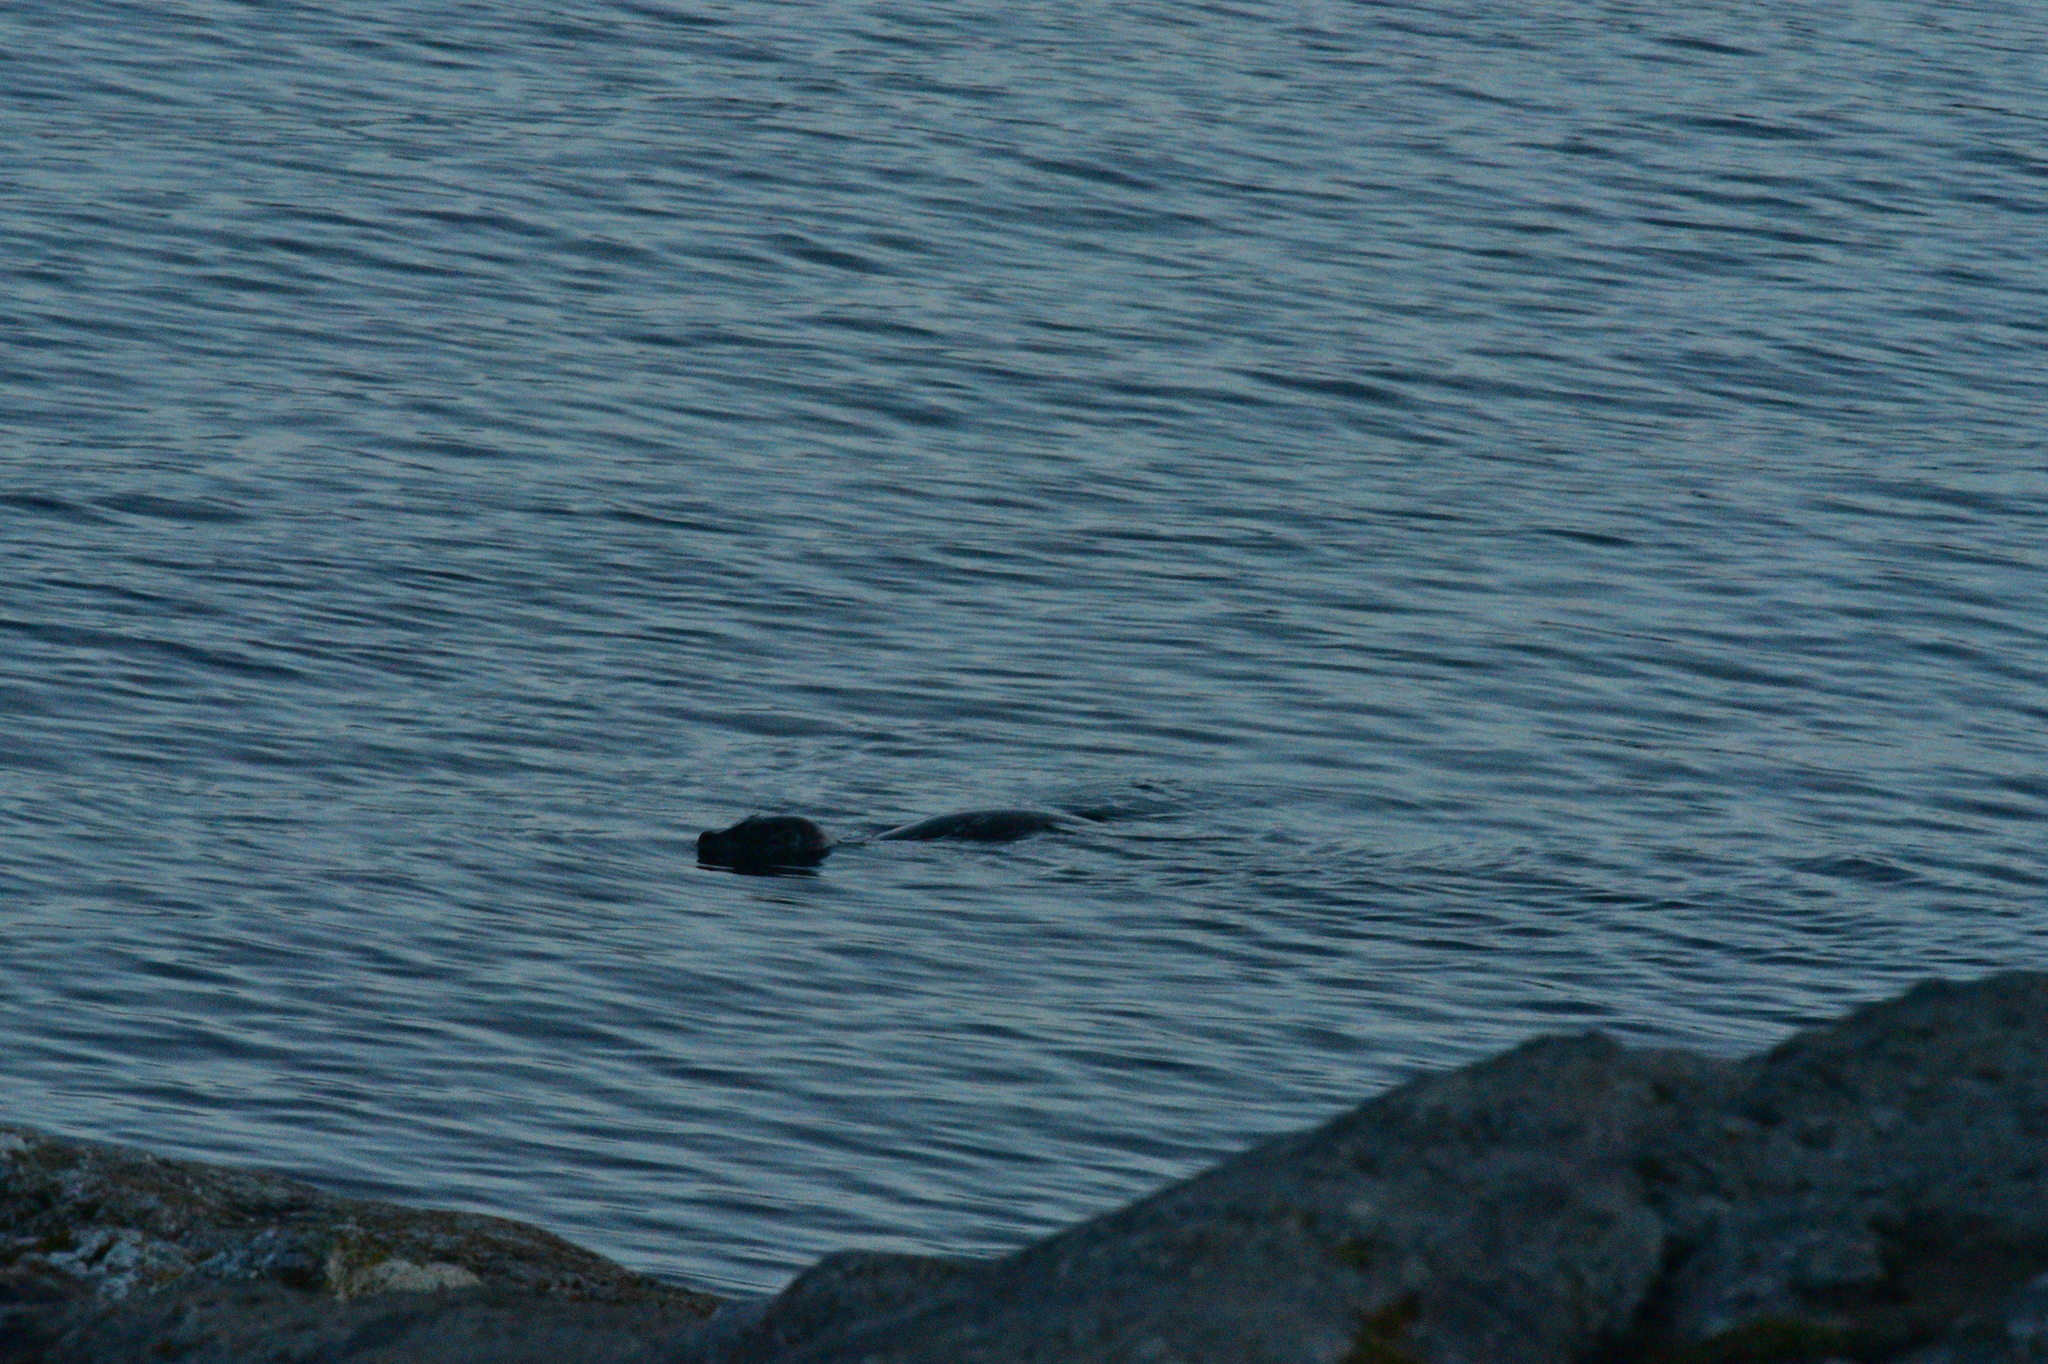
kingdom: Animalia
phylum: Chordata
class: Mammalia
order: Carnivora
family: Phocidae
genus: Phoca
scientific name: Phoca vitulina
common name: Harbor seal
